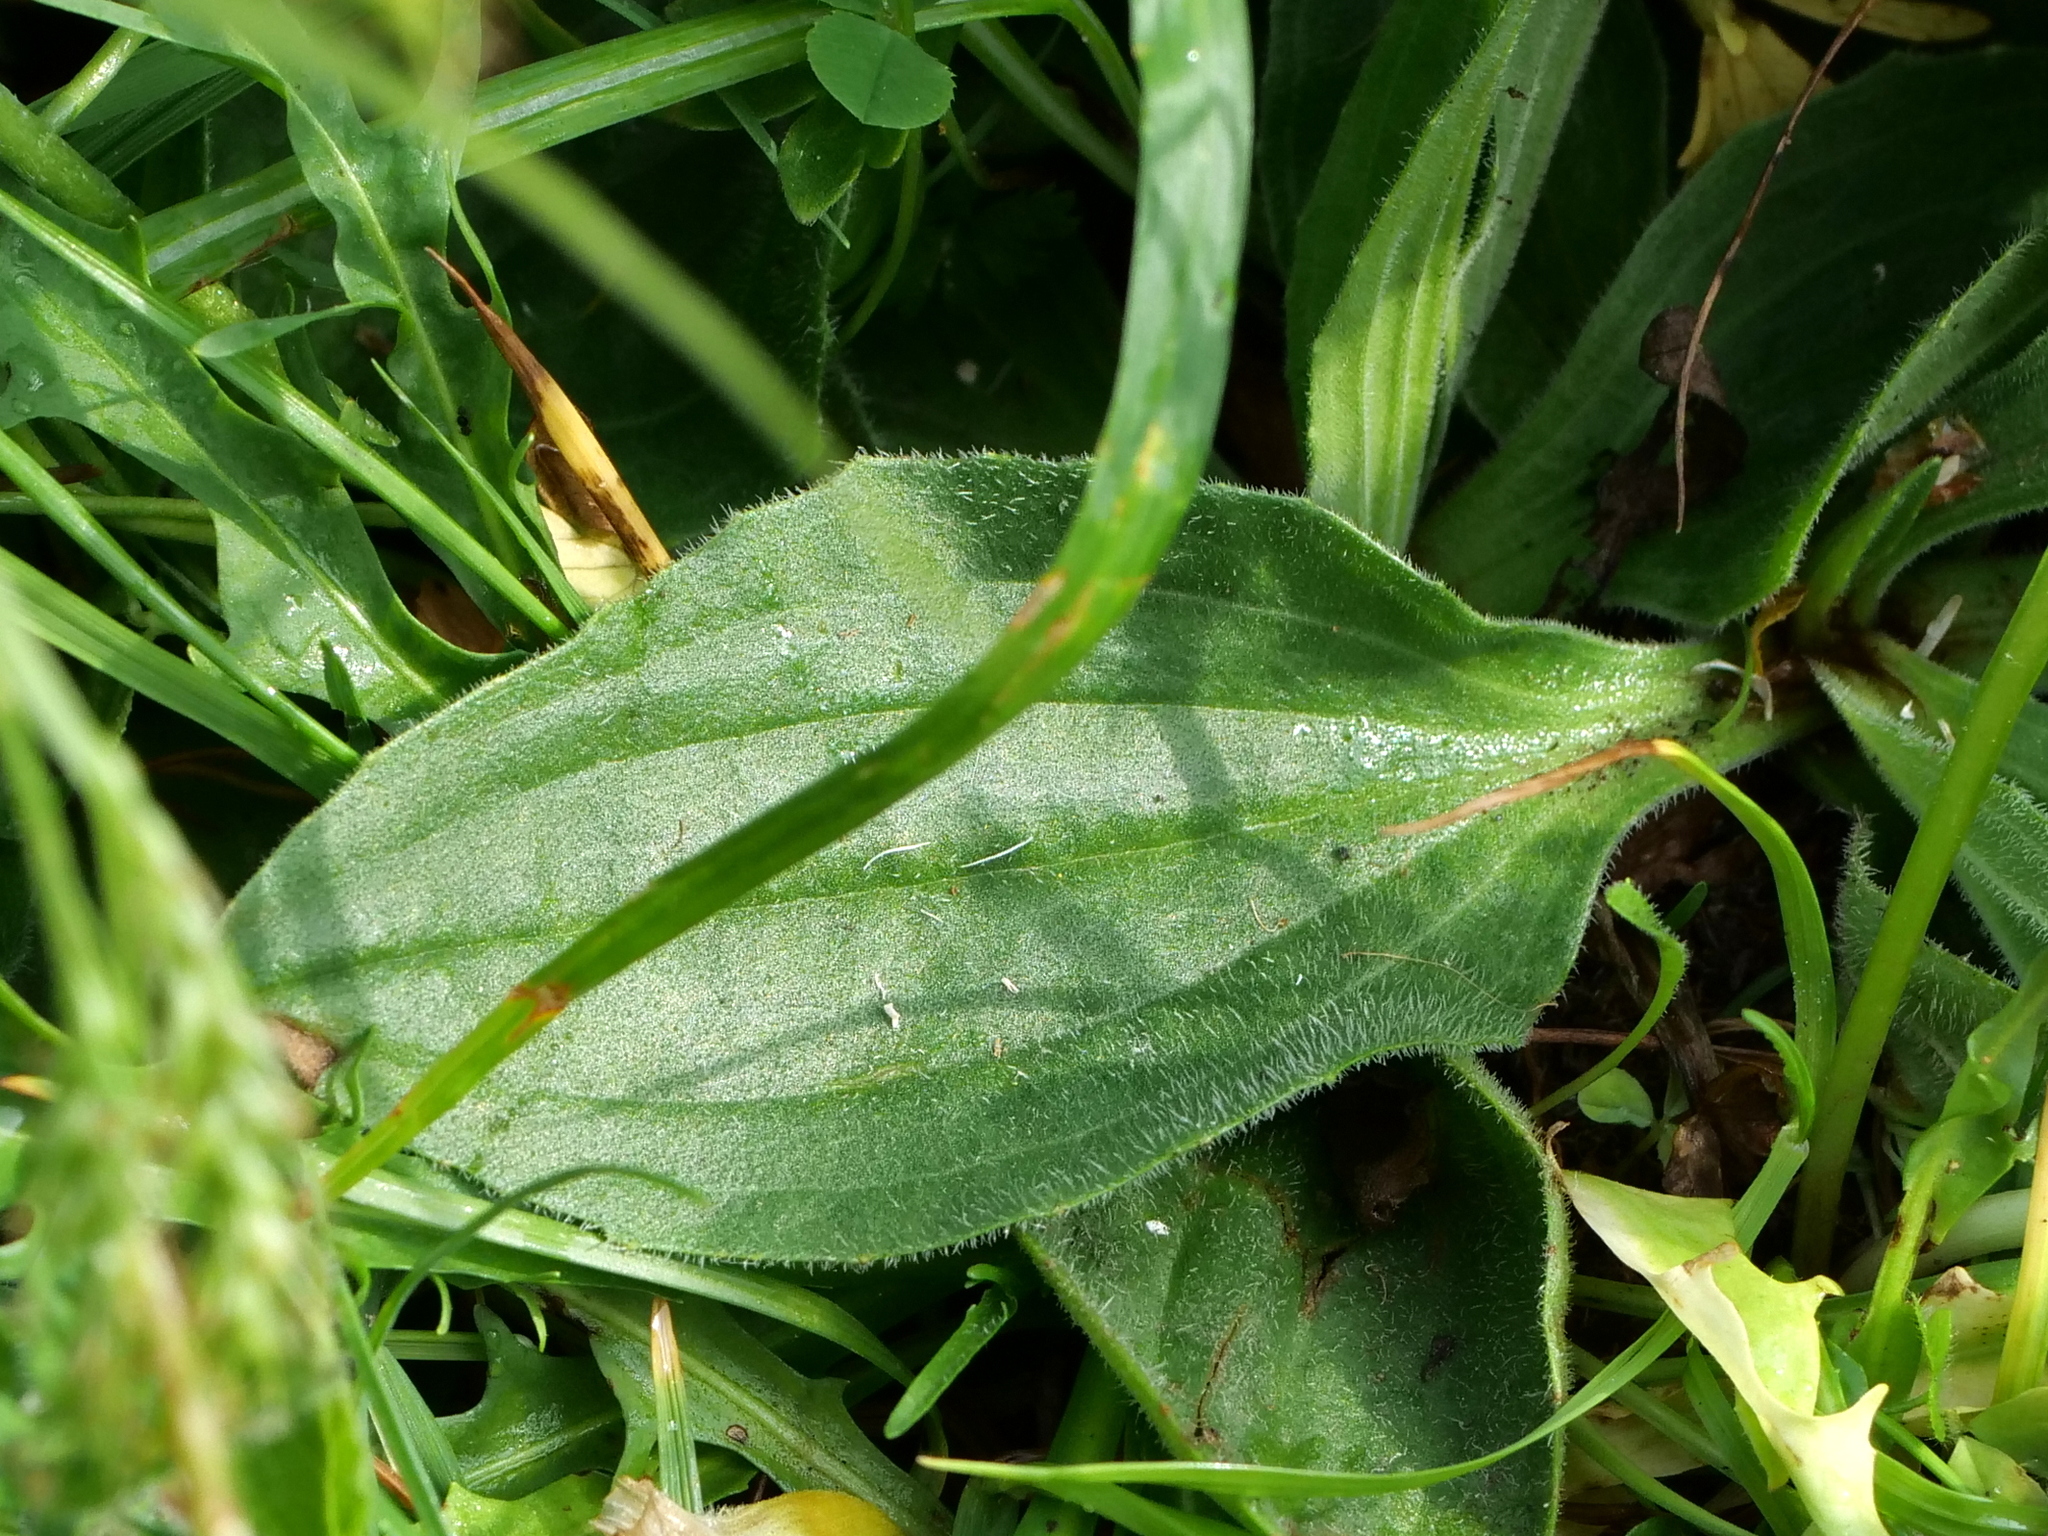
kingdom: Plantae
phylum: Tracheophyta
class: Magnoliopsida
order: Lamiales
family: Plantaginaceae
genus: Plantago
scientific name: Plantago media
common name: Hoary plantain
